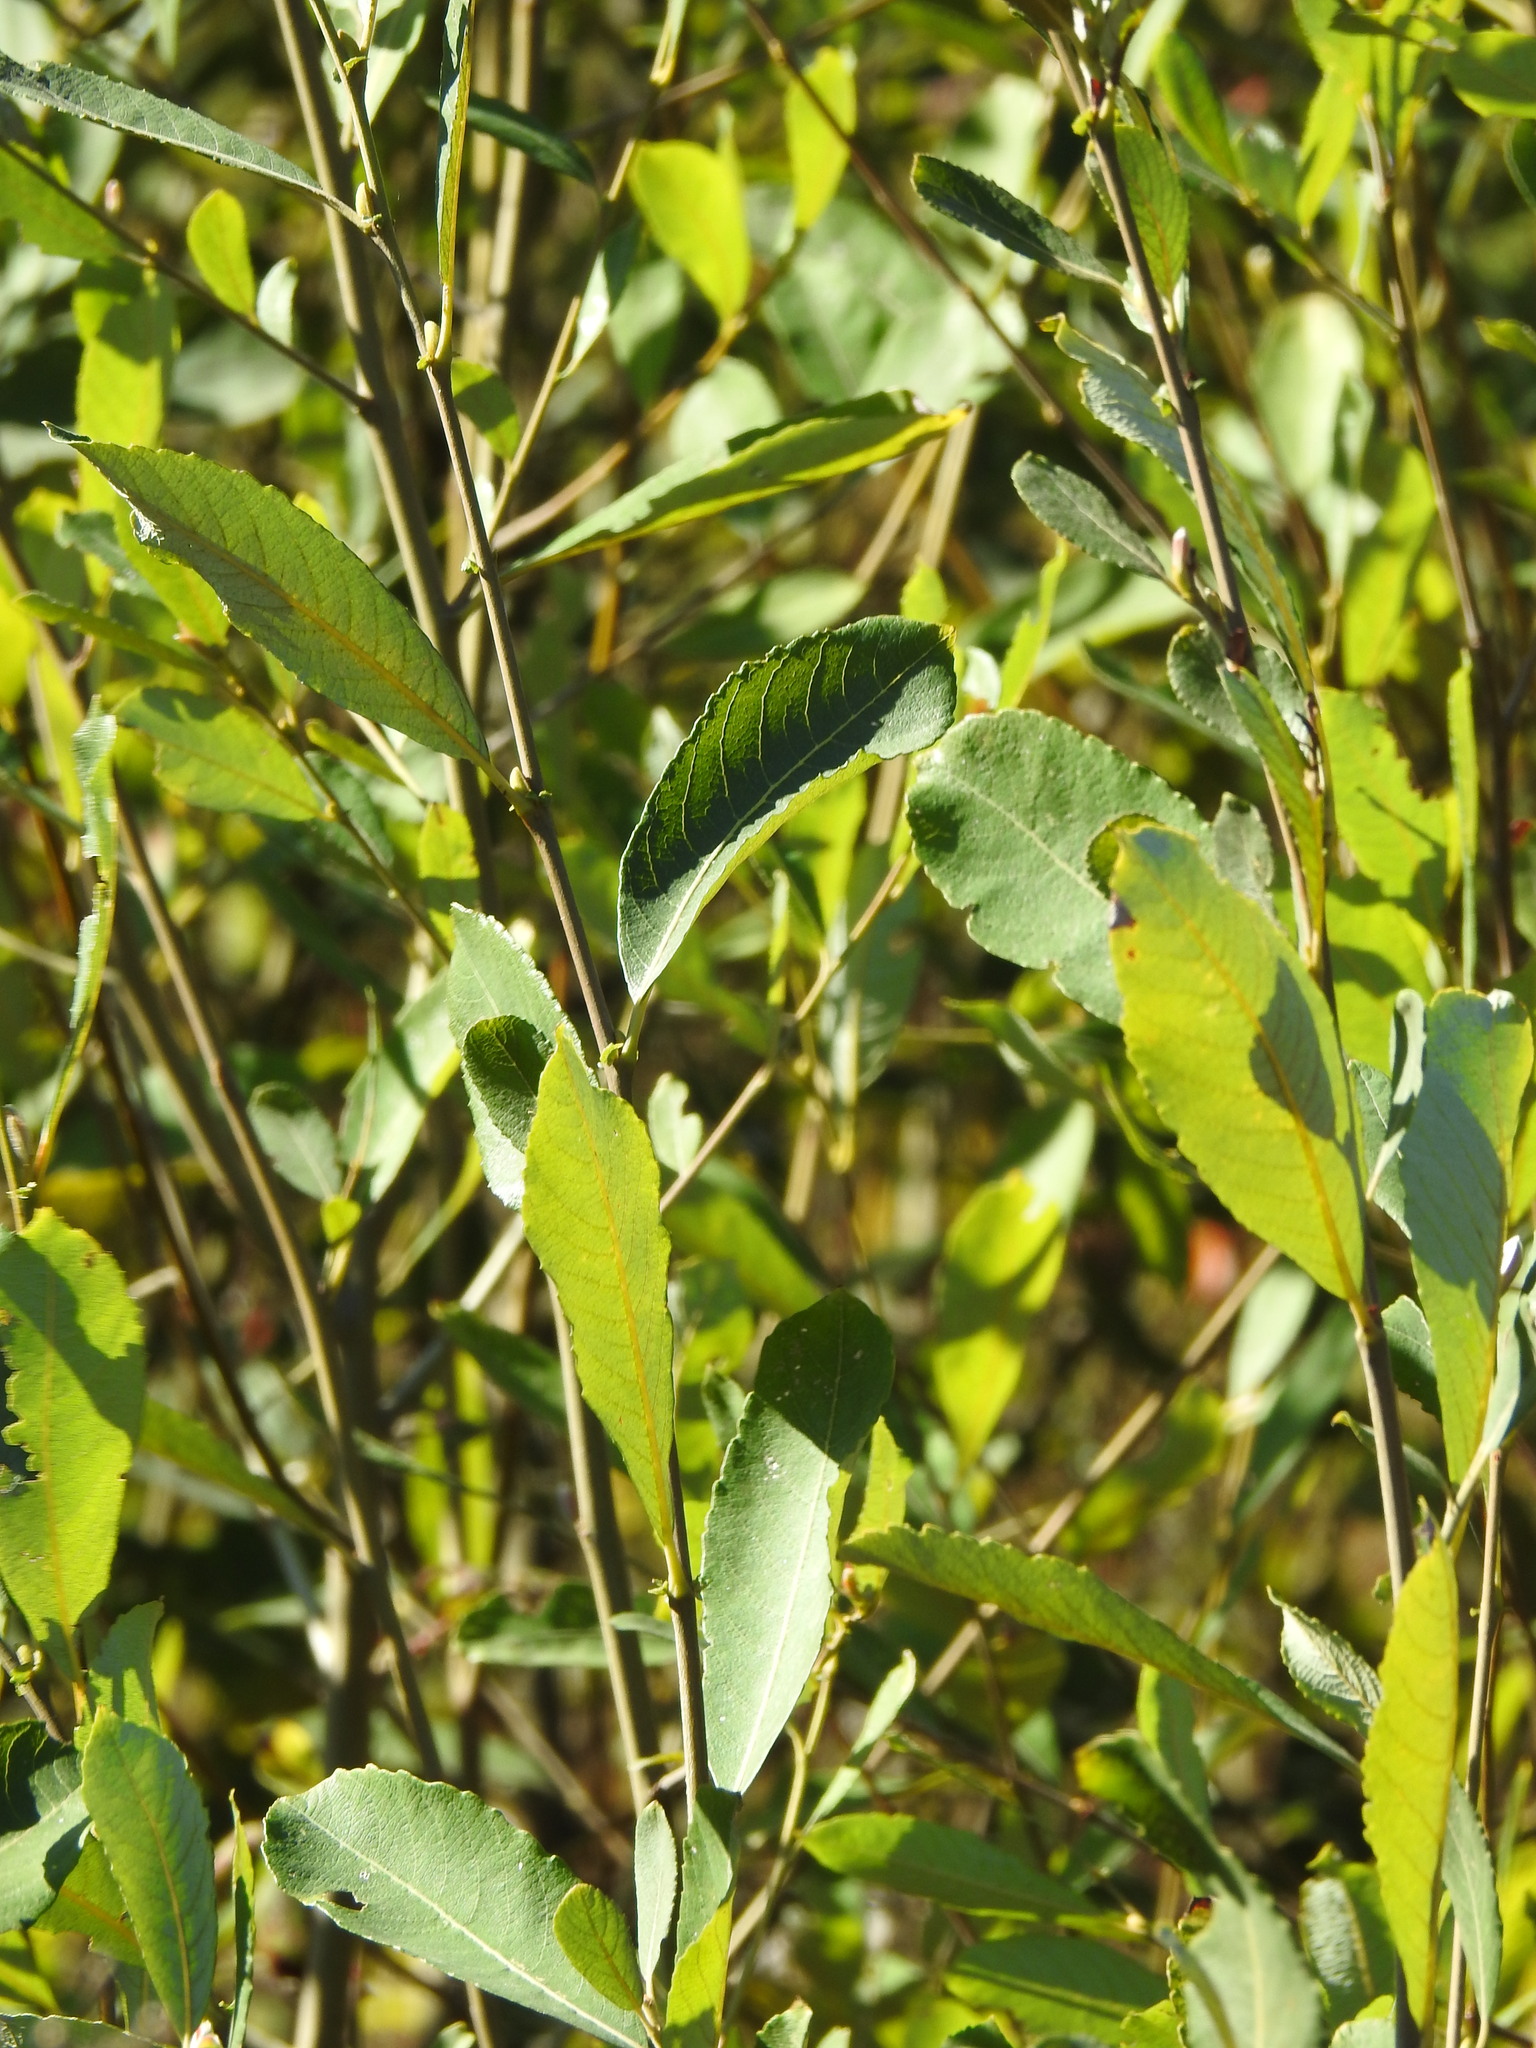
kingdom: Plantae
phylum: Tracheophyta
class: Magnoliopsida
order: Malpighiales
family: Salicaceae
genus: Salix
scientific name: Salix atrocinerea
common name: Rusty willow
